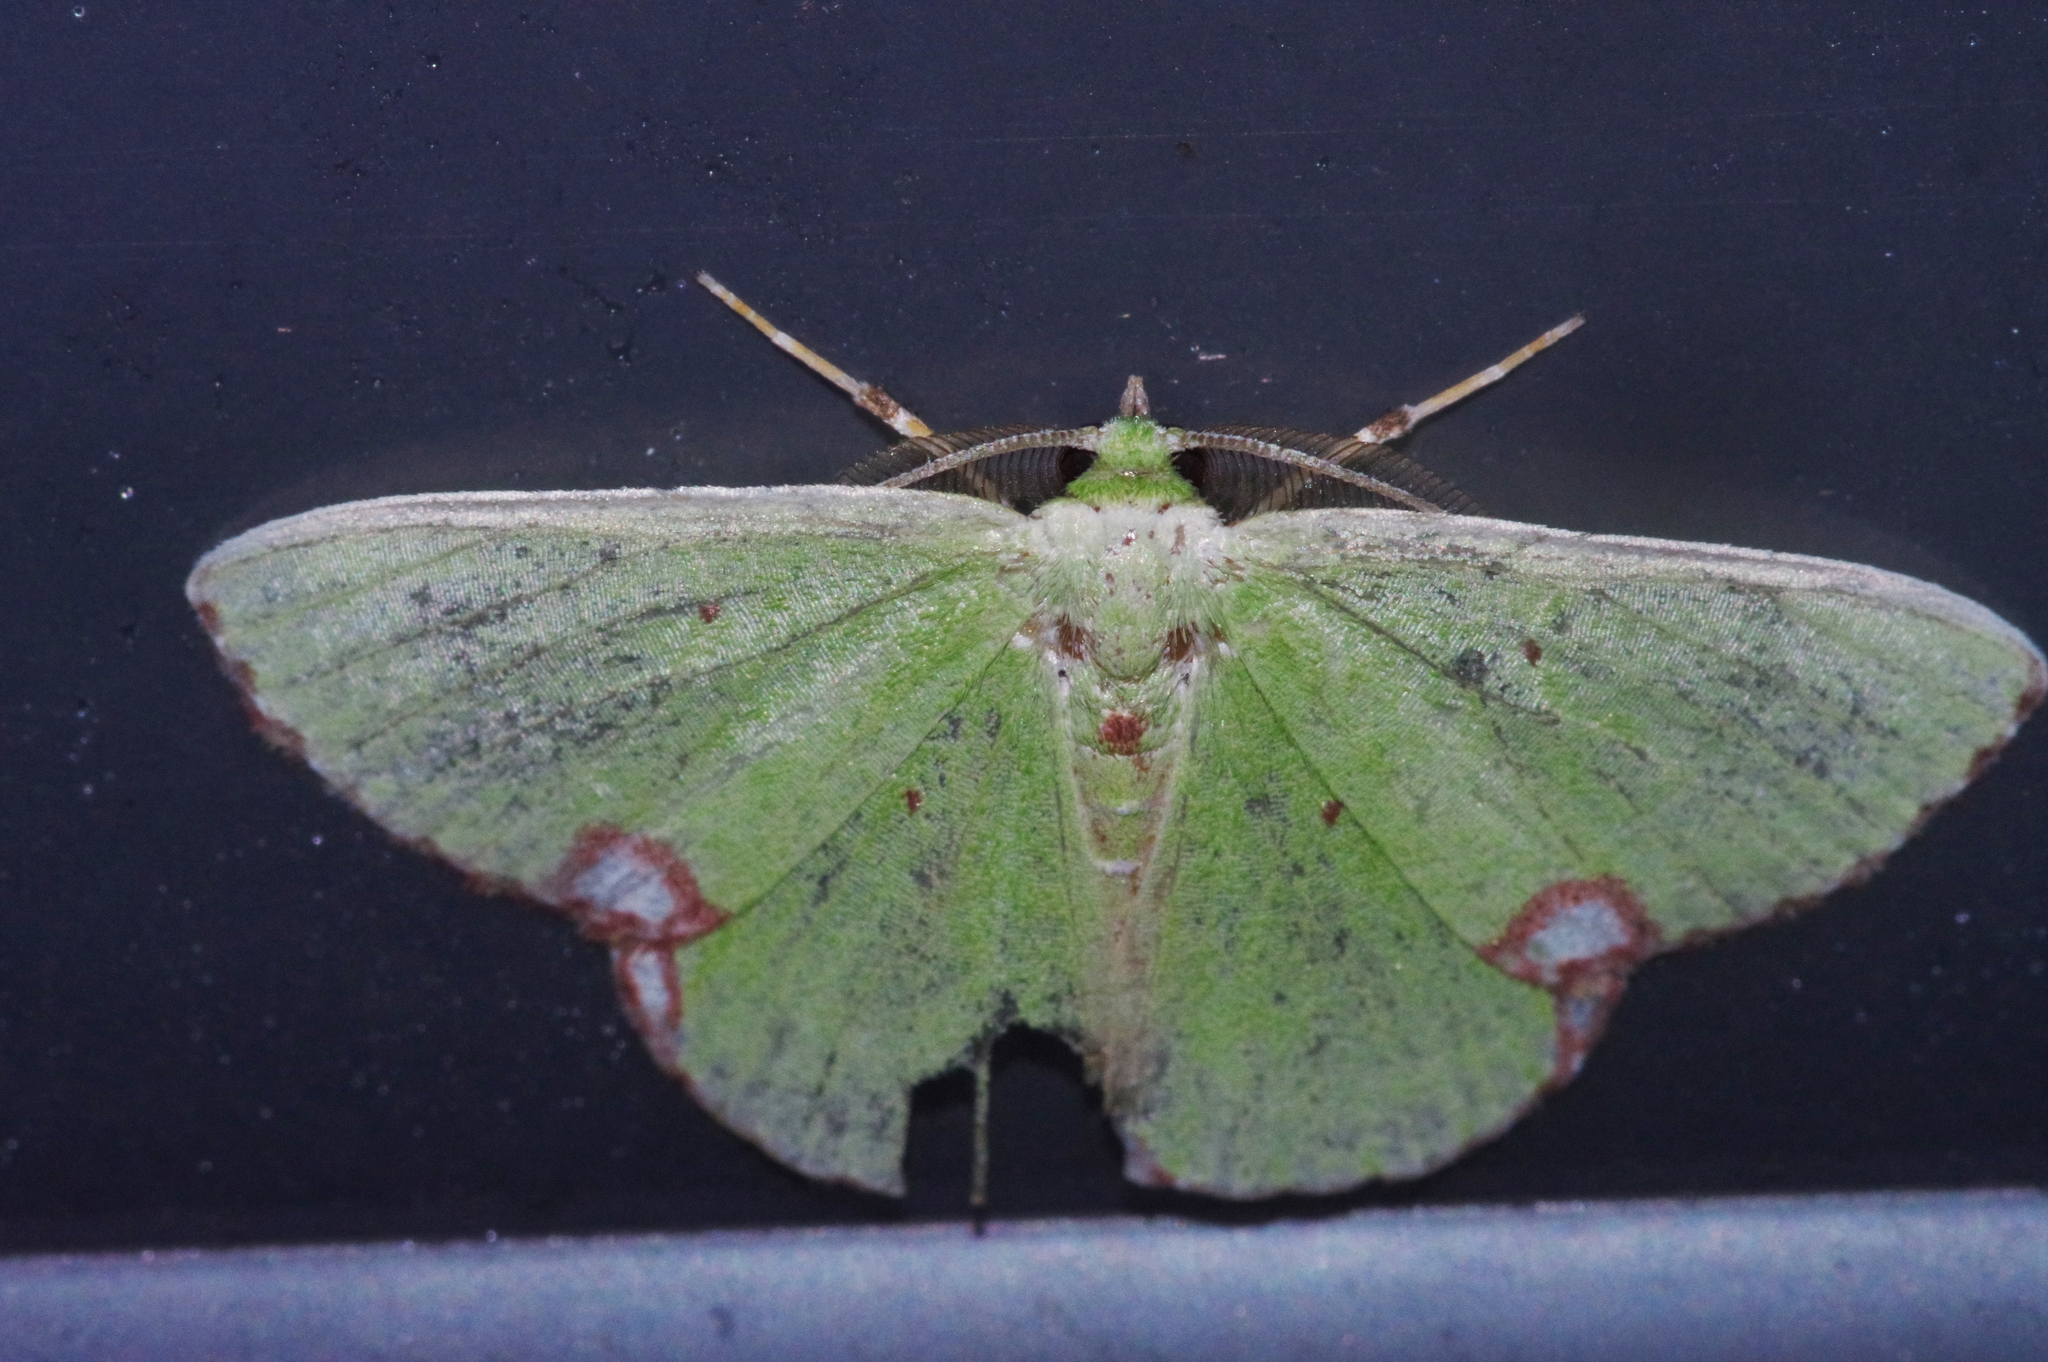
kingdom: Animalia
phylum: Arthropoda
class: Insecta
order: Lepidoptera
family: Geometridae
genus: Comibaena
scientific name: Comibaena procumbaria
